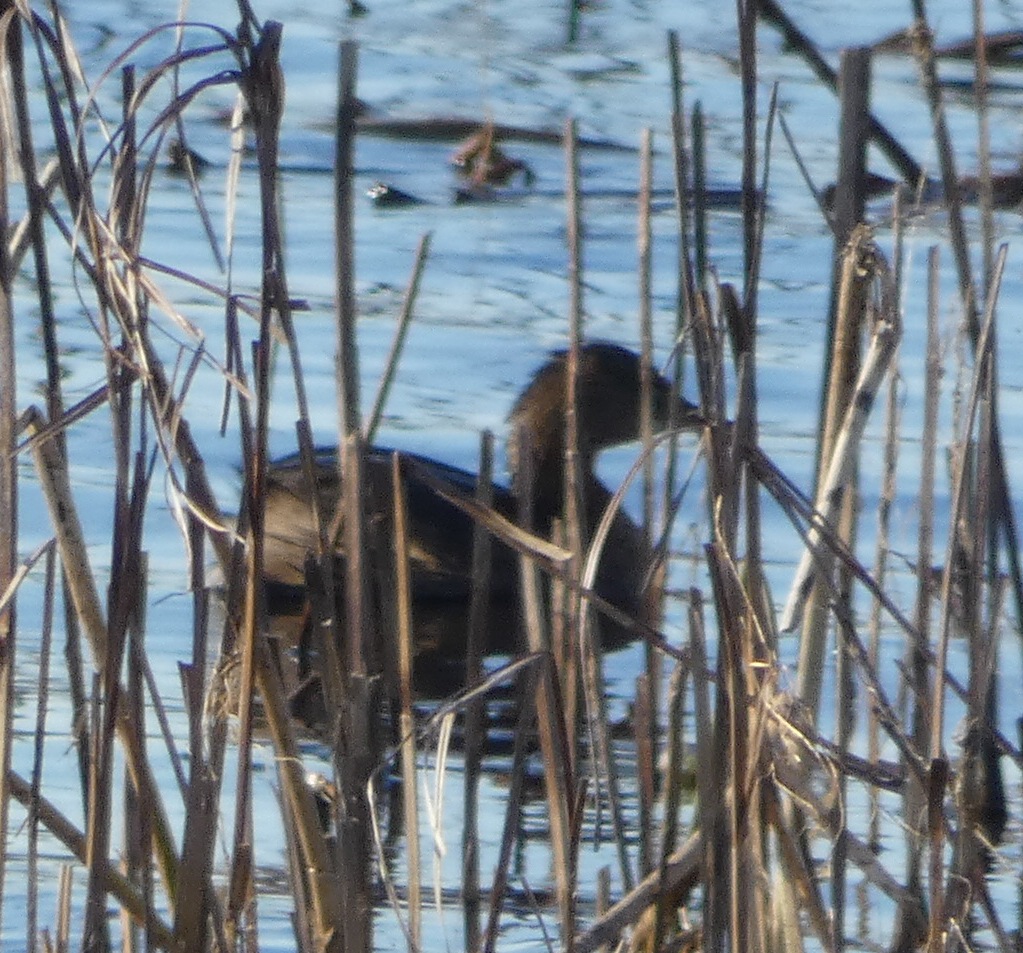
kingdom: Animalia
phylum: Chordata
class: Aves
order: Podicipediformes
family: Podicipedidae
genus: Podilymbus
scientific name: Podilymbus podiceps
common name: Pied-billed grebe
